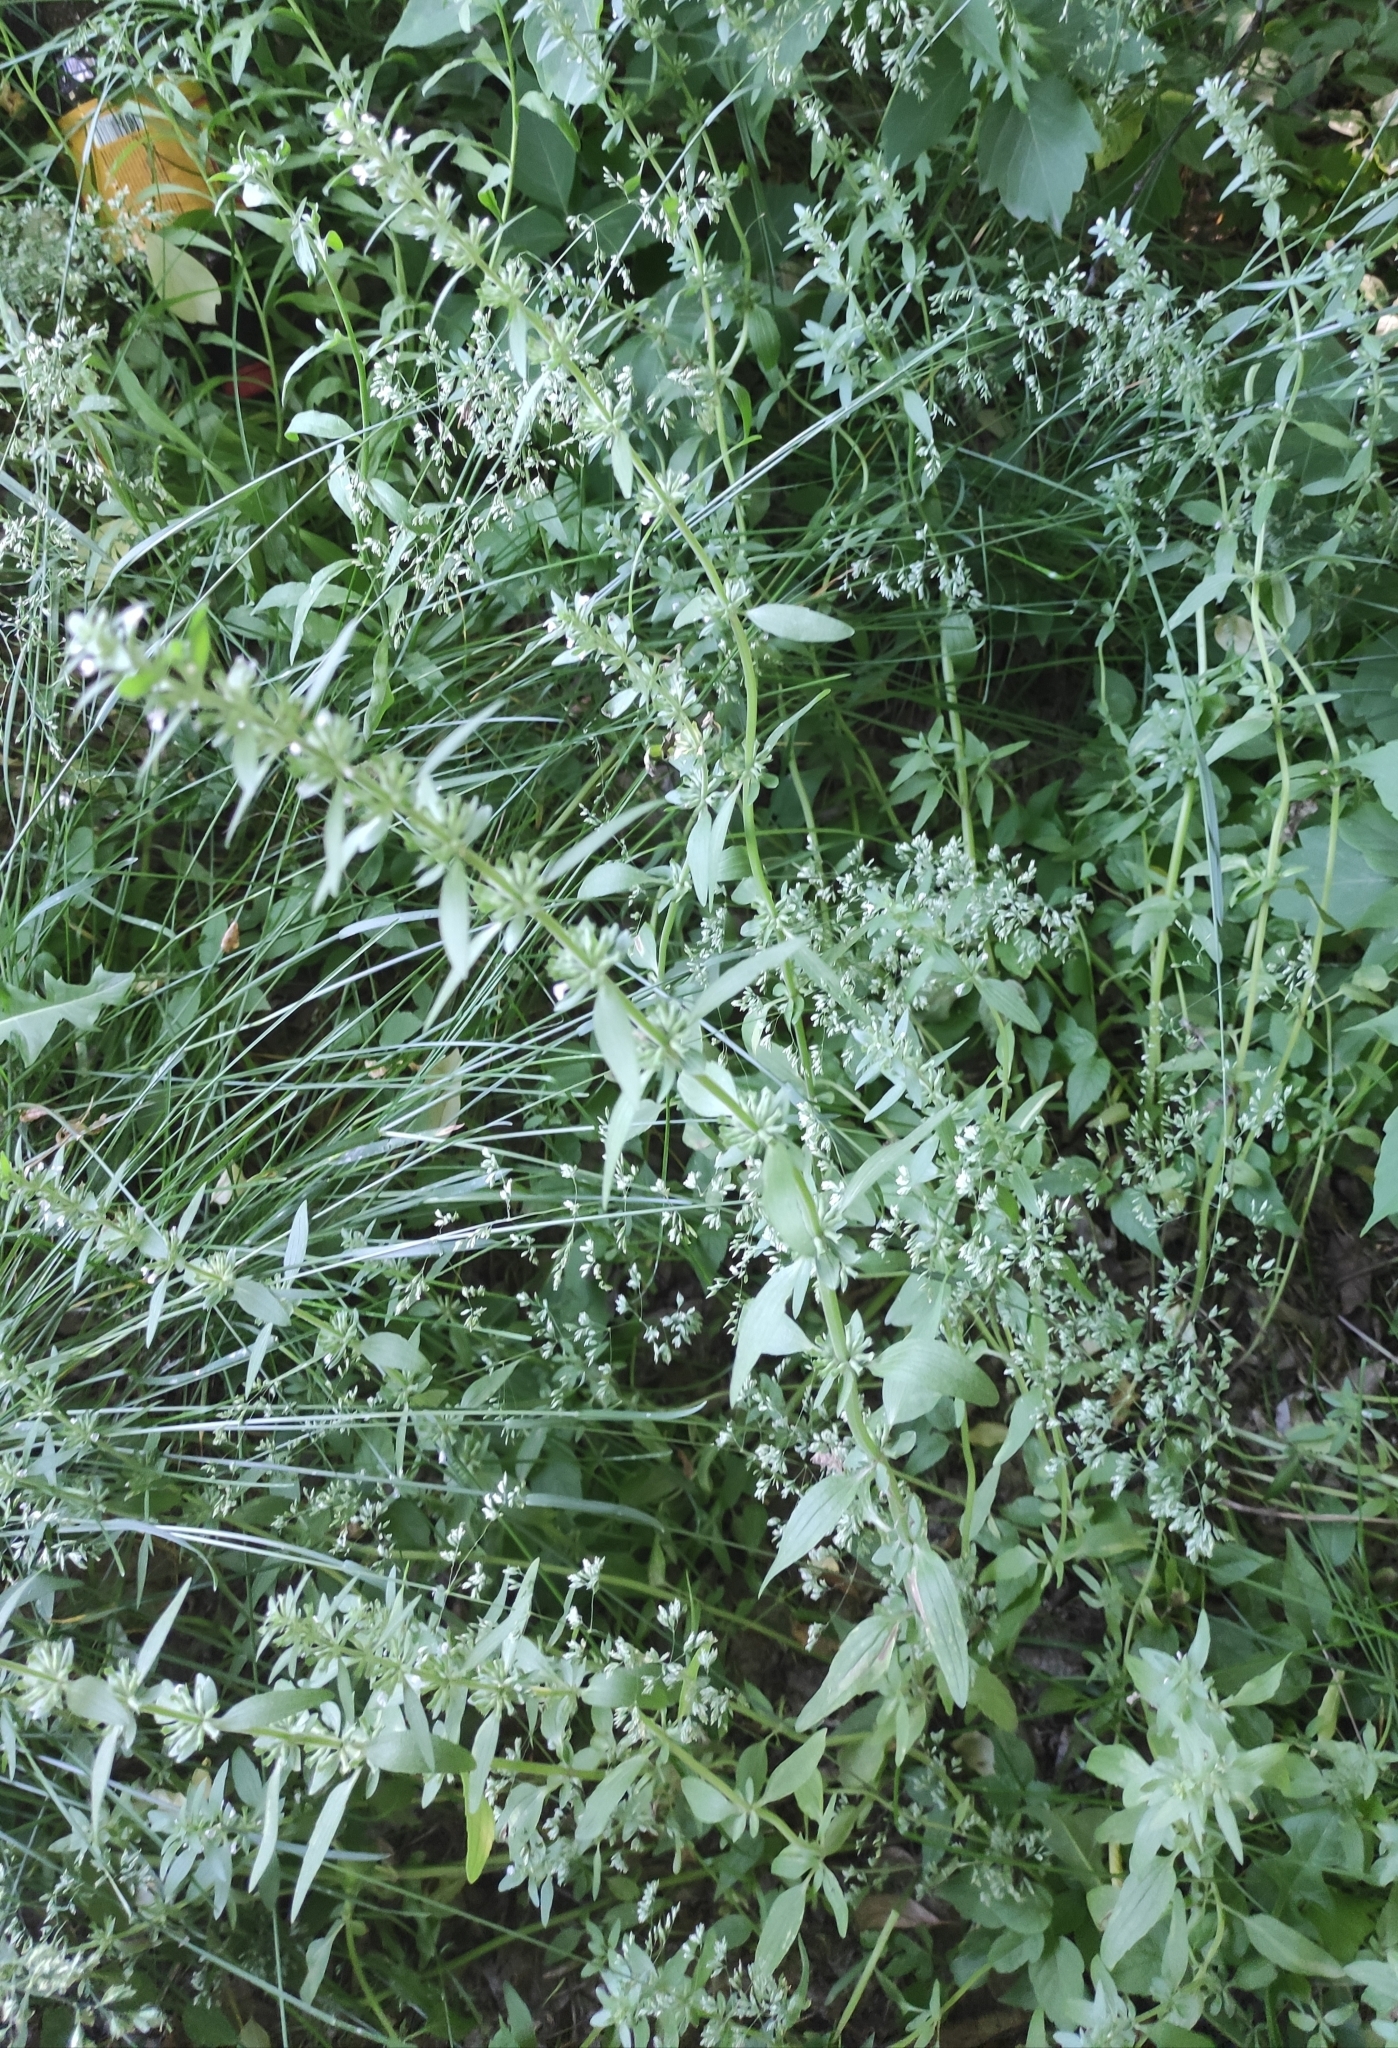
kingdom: Plantae
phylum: Tracheophyta
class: Magnoliopsida
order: Lamiales
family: Lamiaceae
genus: Dracocephalum
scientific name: Dracocephalum thymiflorum
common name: Thymeleaf dragonhead
